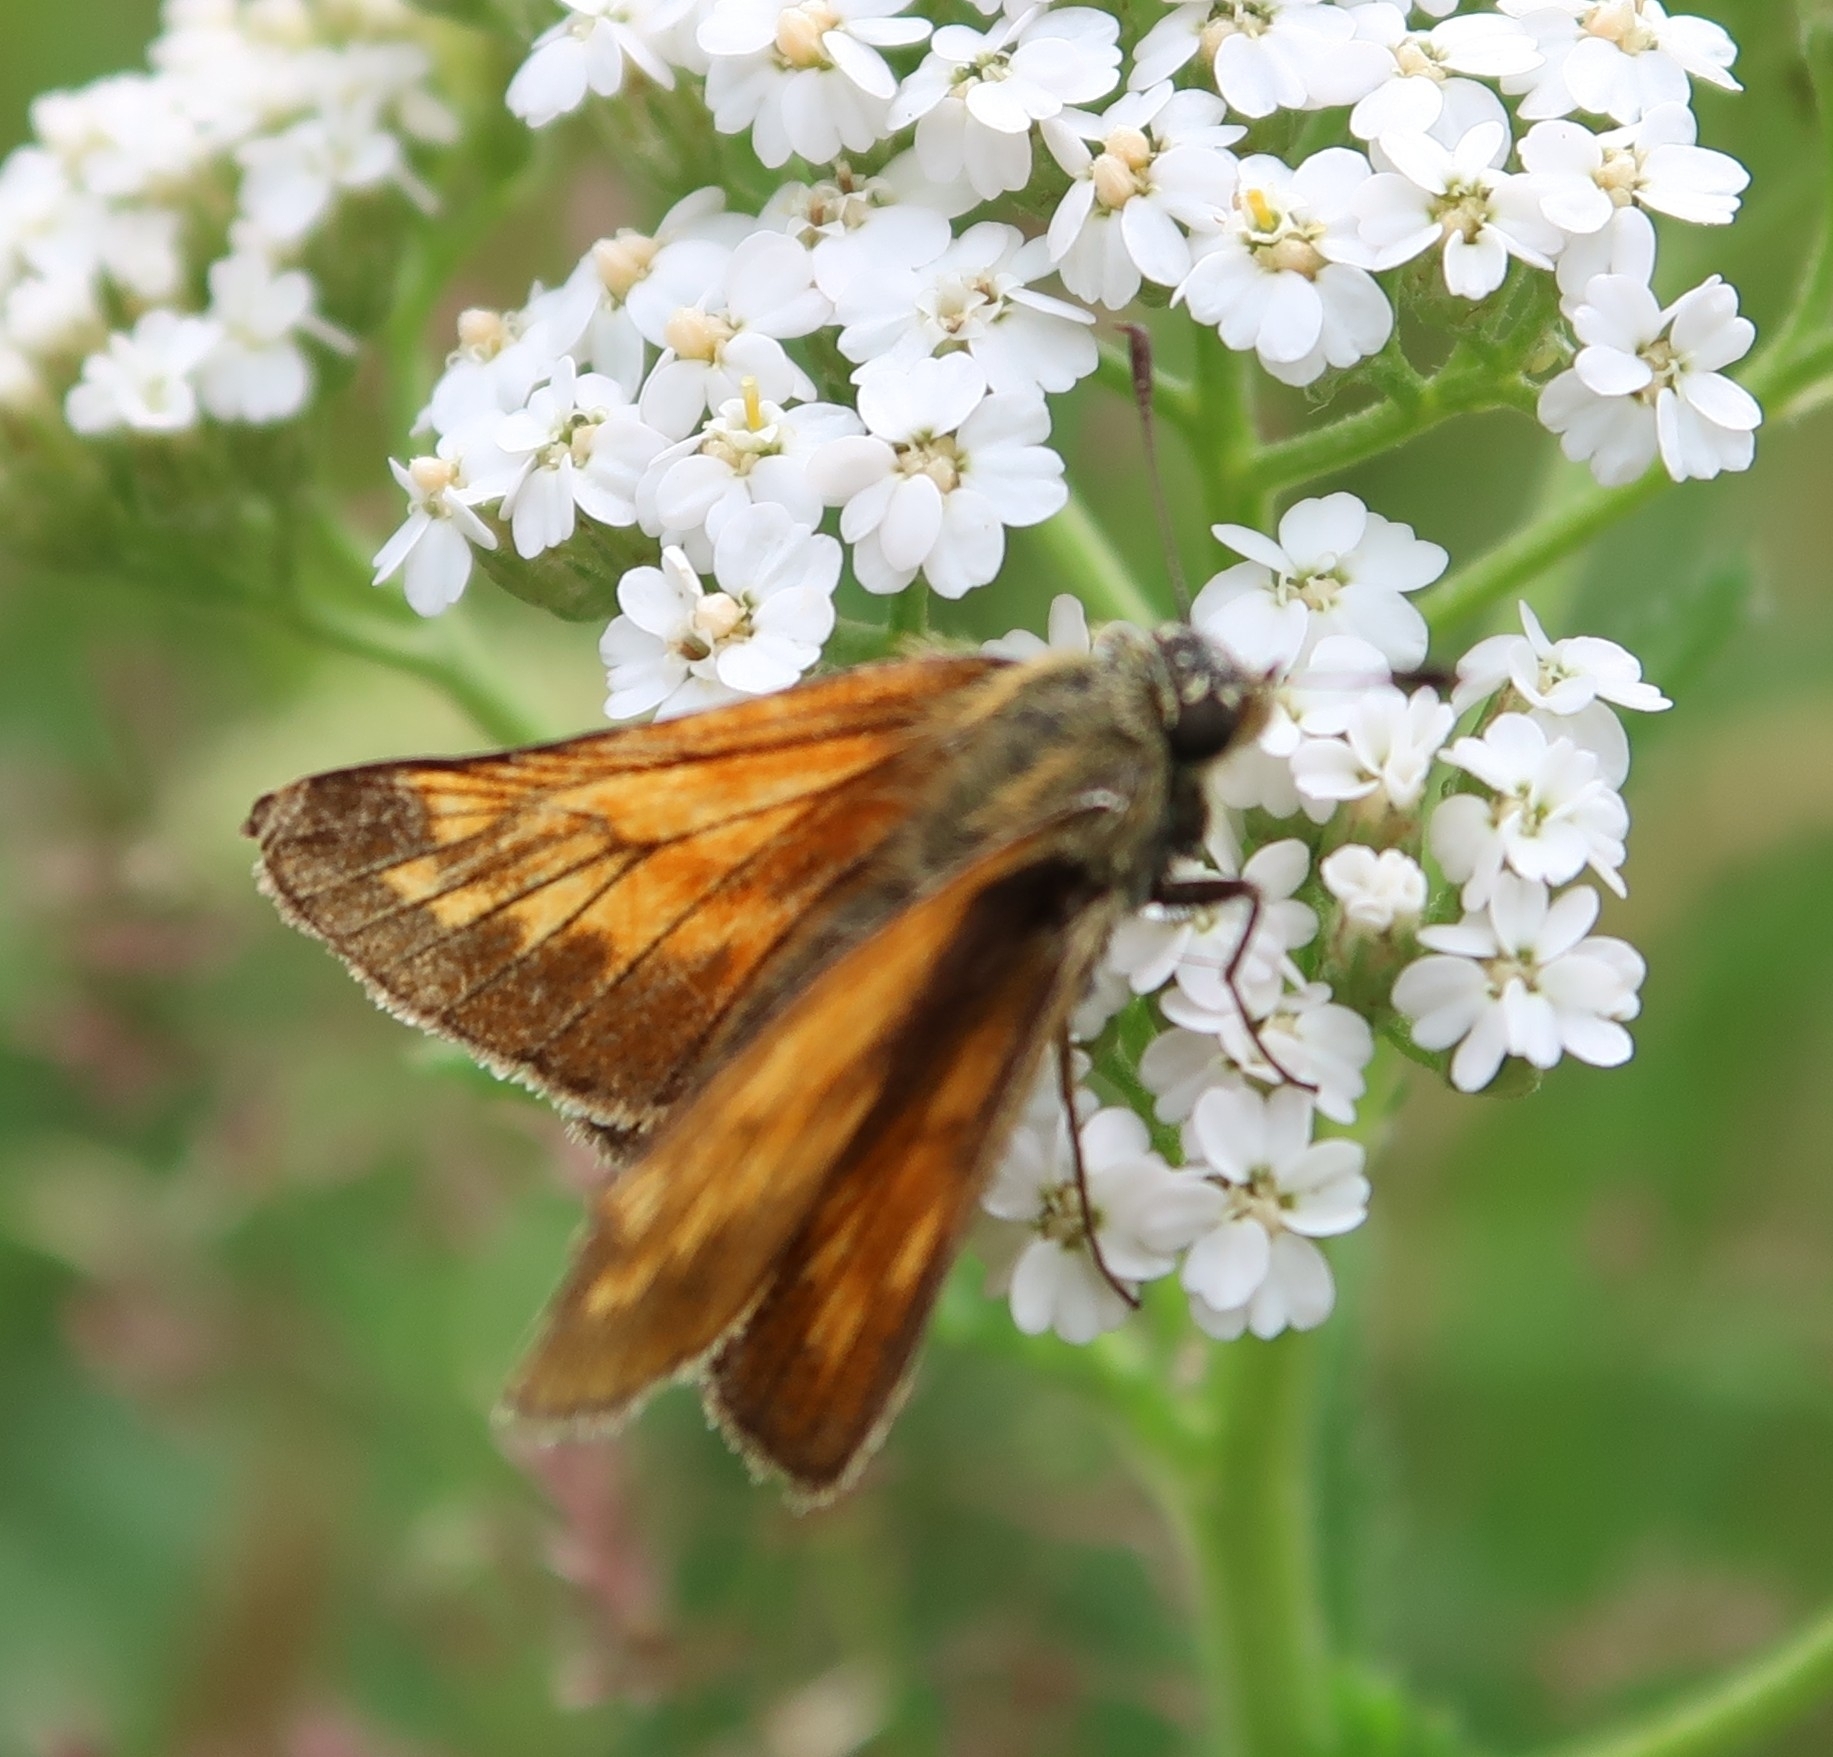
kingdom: Animalia
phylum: Arthropoda
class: Insecta
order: Lepidoptera
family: Hesperiidae
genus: Ochlodes
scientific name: Ochlodes venata
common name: Large skipper
